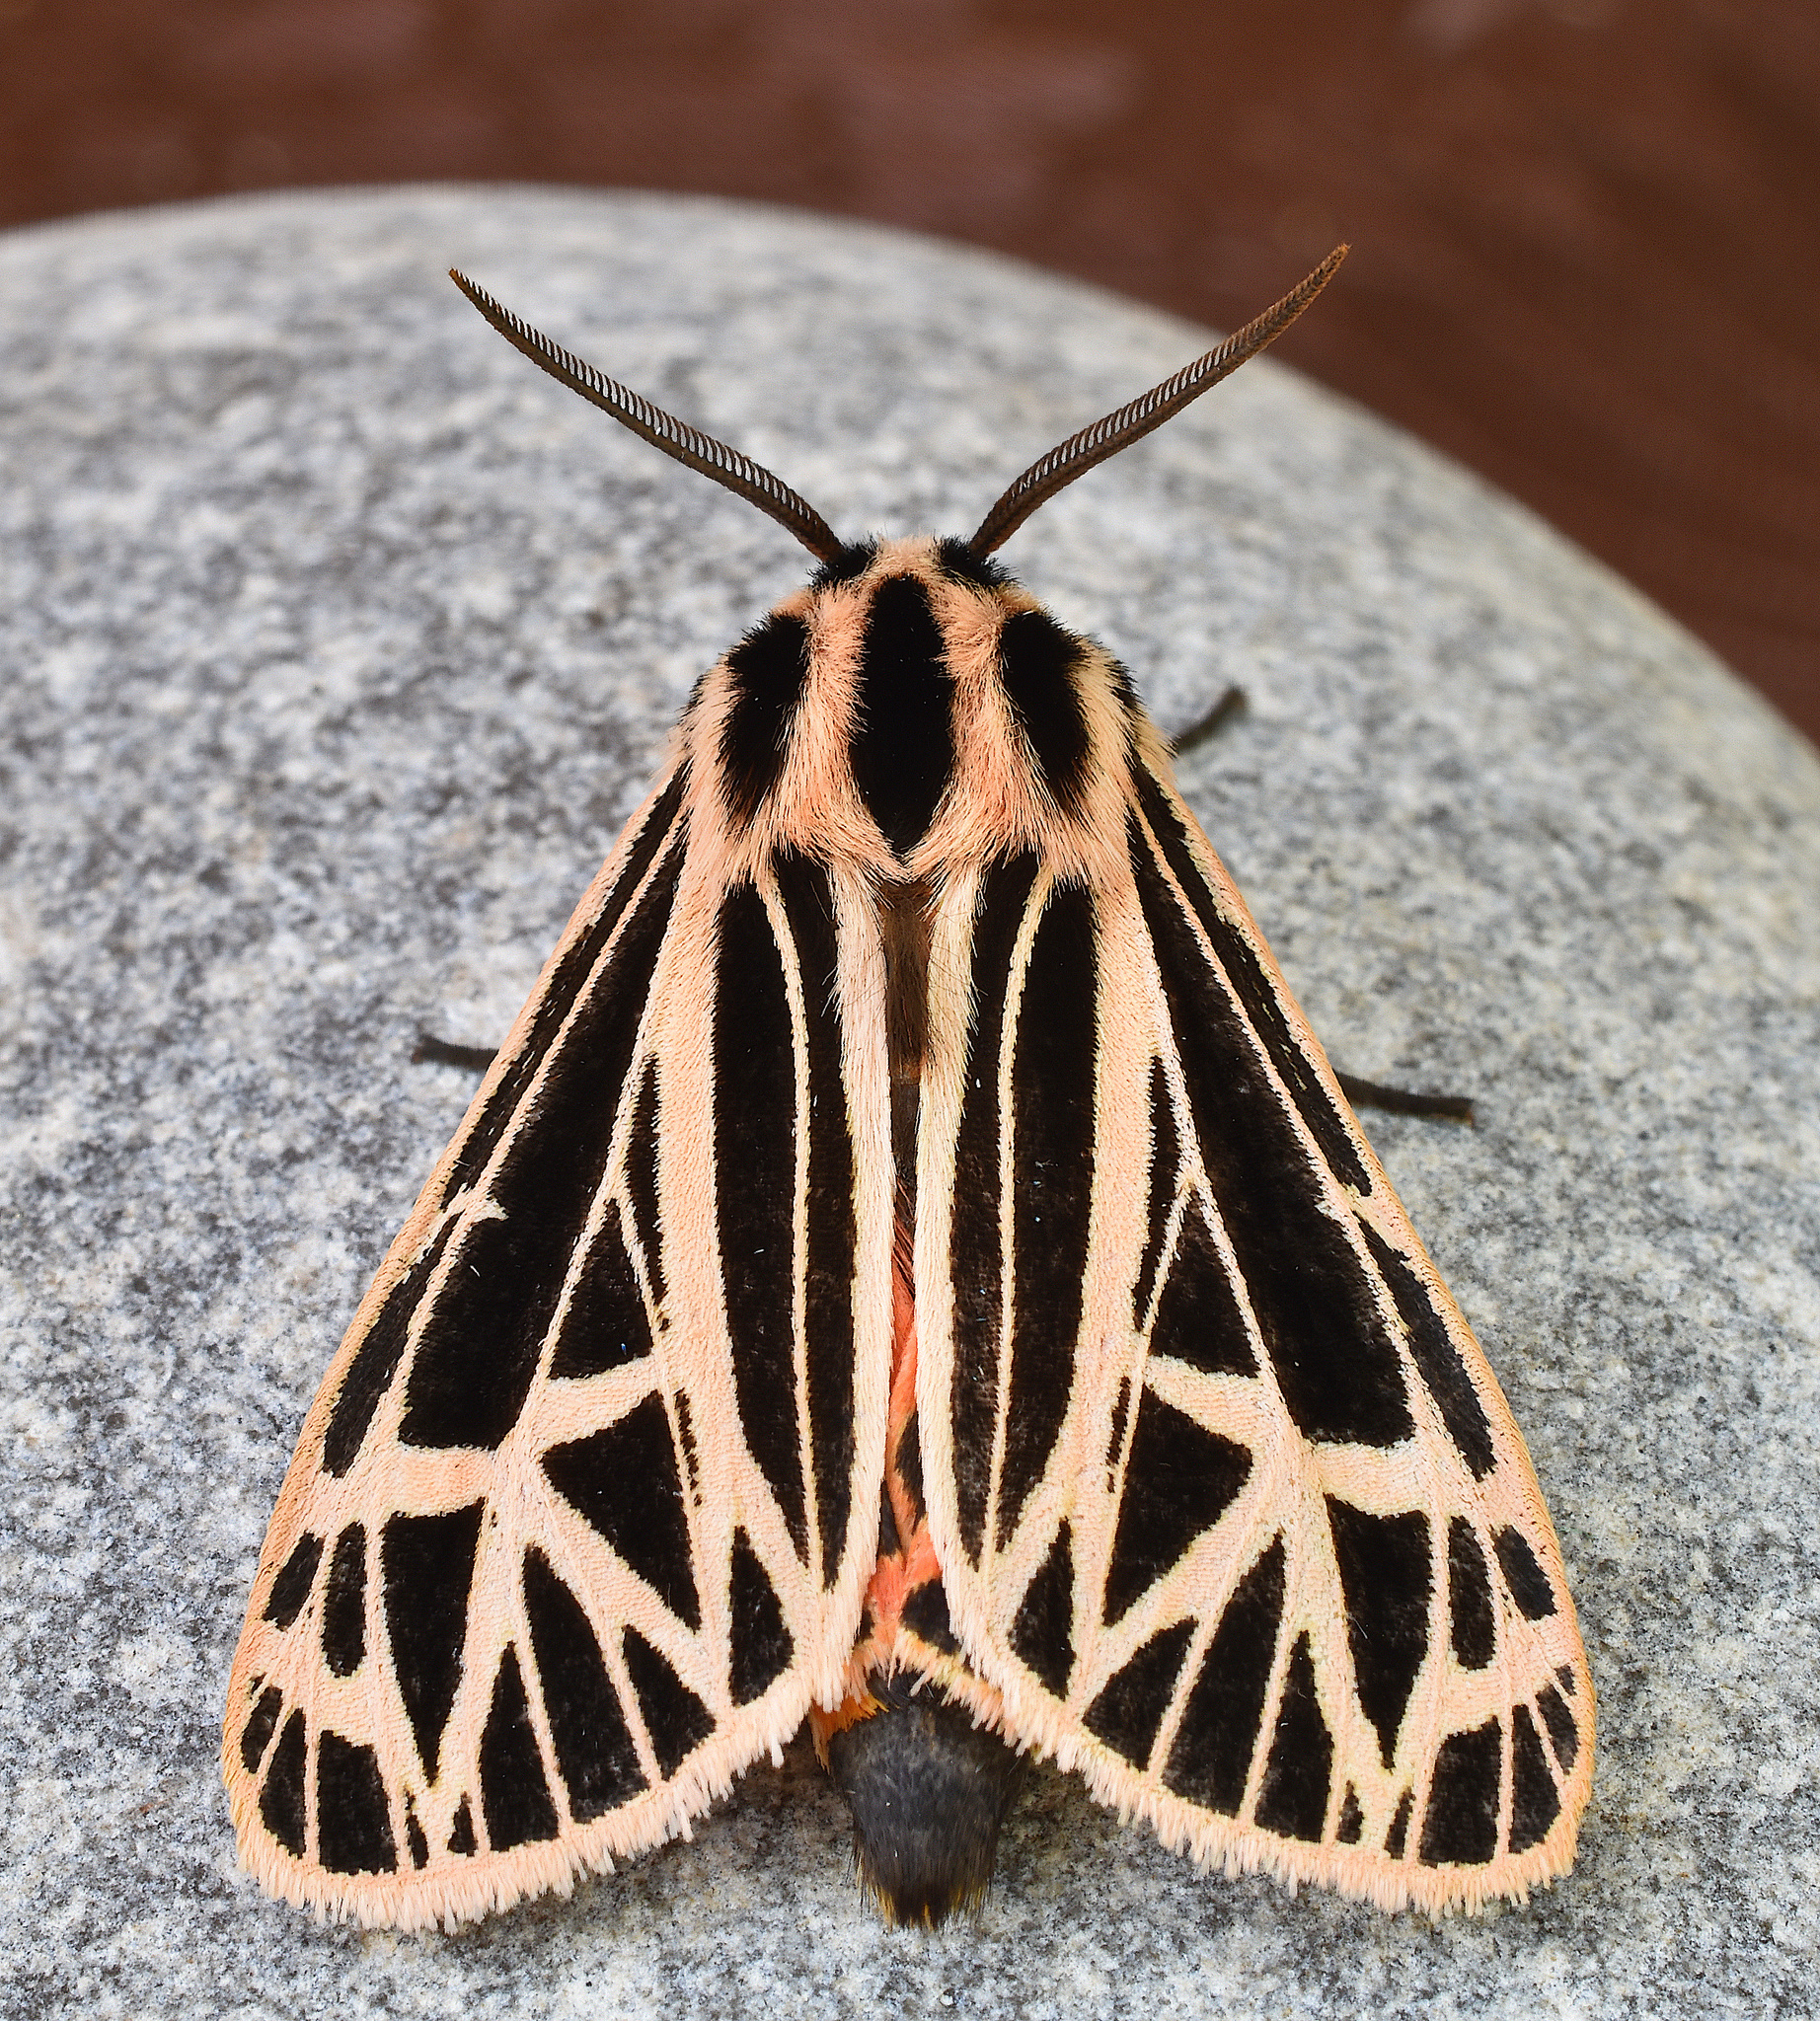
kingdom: Animalia
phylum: Arthropoda
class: Insecta
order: Lepidoptera
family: Erebidae
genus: Grammia
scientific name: Grammia parthenice
